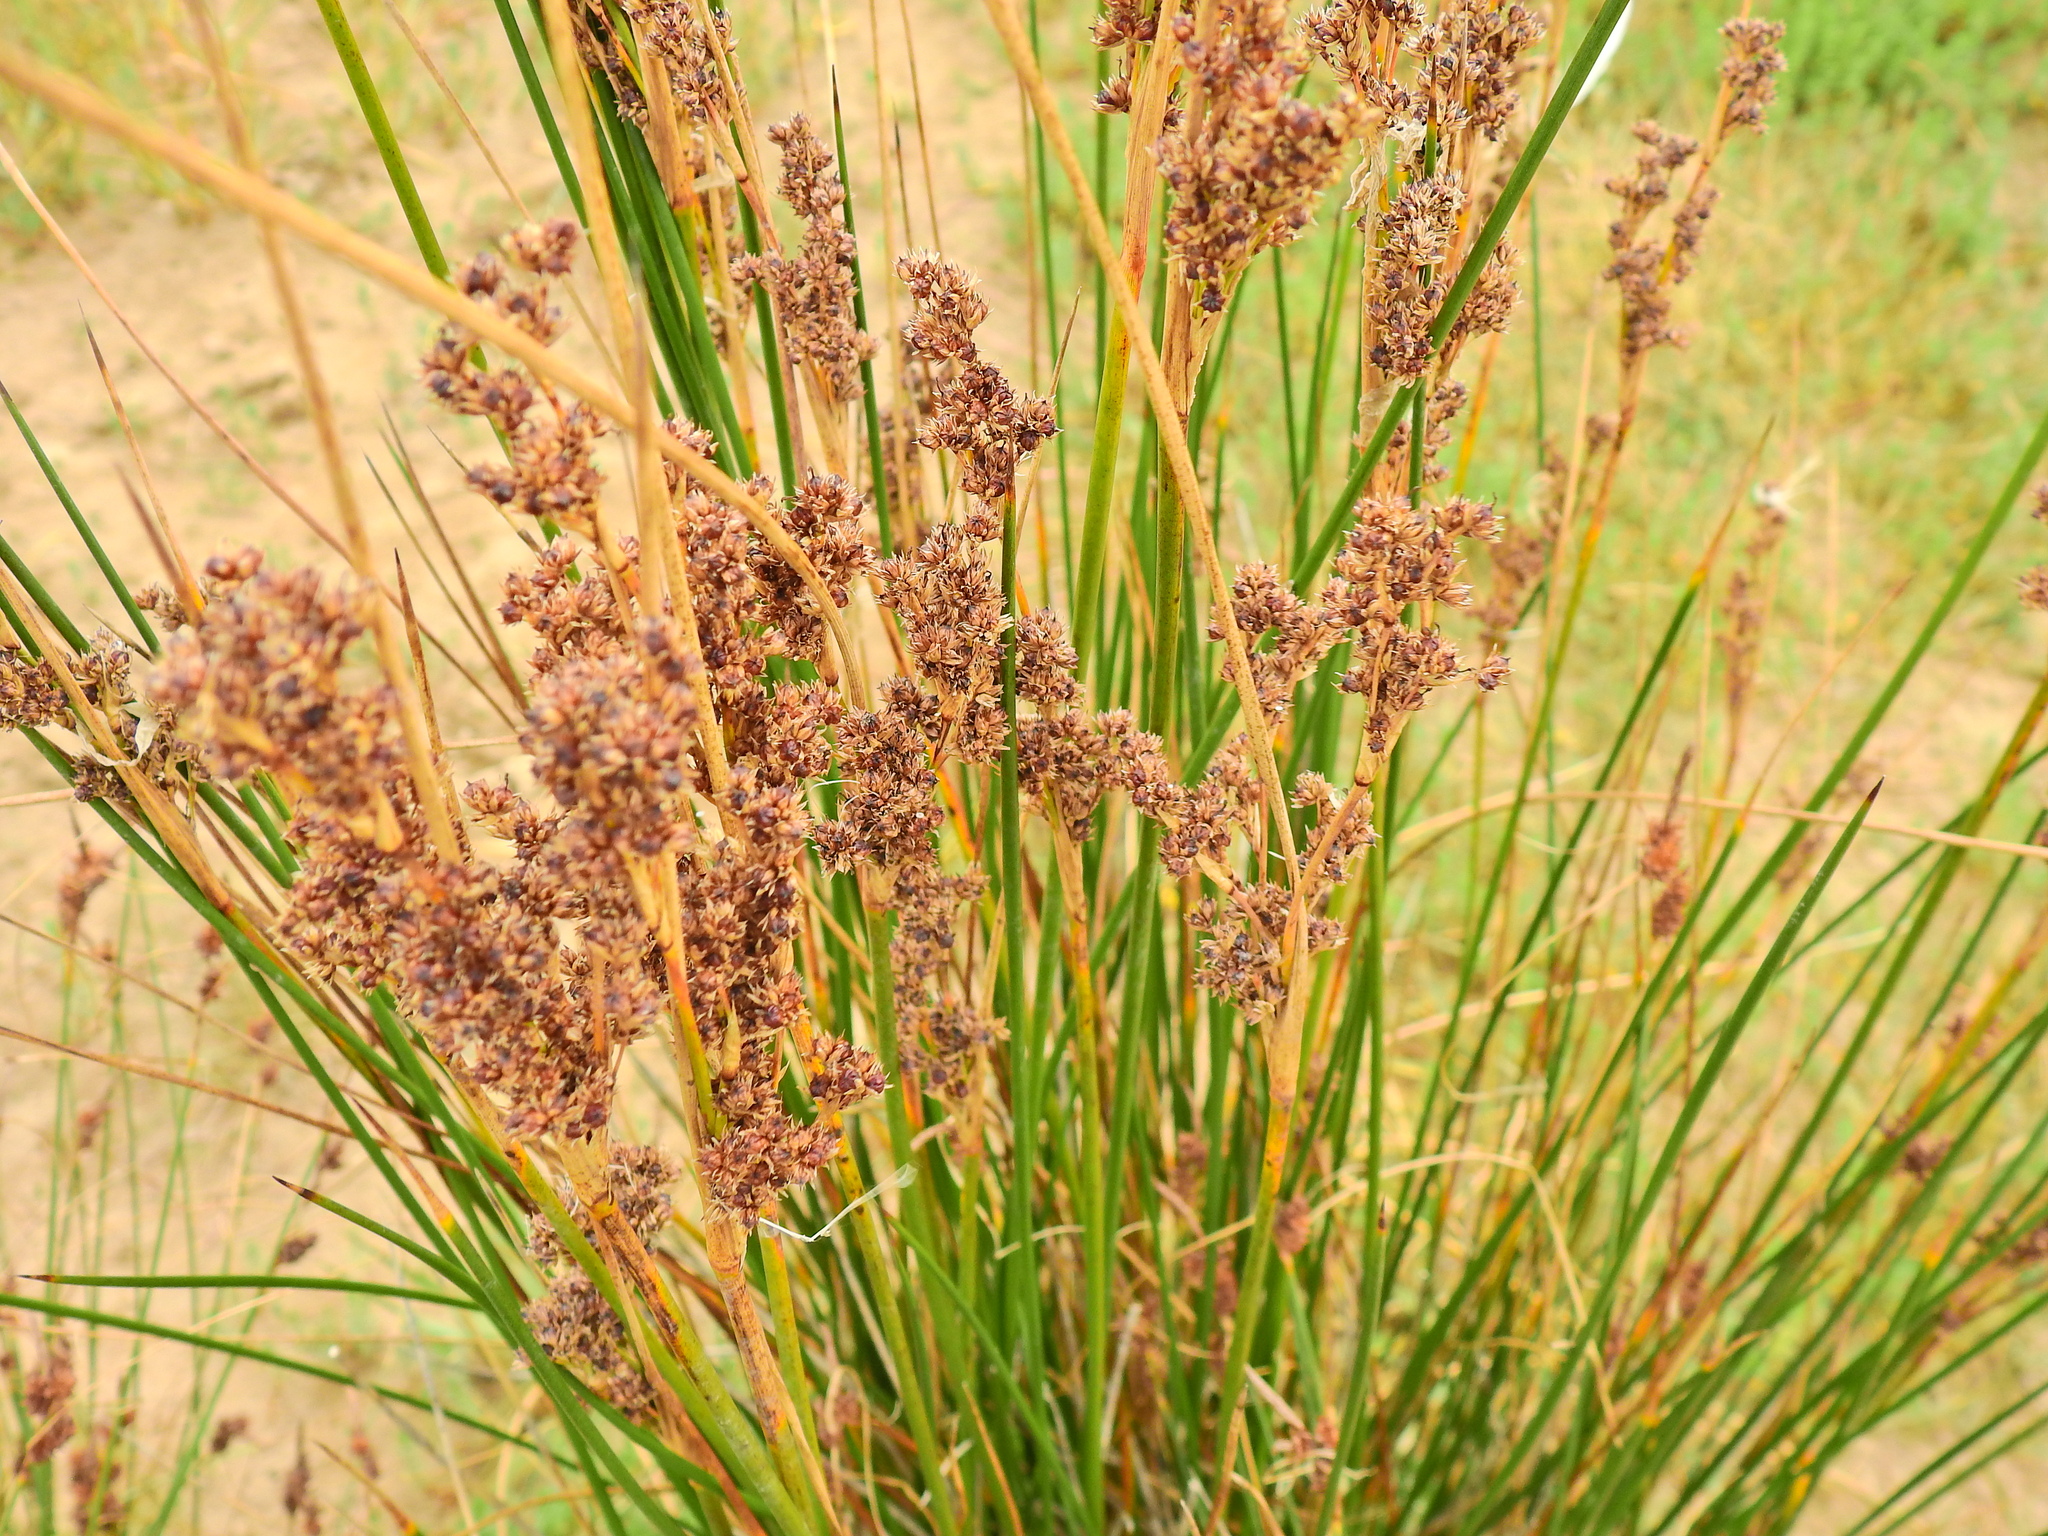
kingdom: Plantae
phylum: Tracheophyta
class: Liliopsida
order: Poales
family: Juncaceae
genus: Juncus
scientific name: Juncus maritimus
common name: Sea rush
